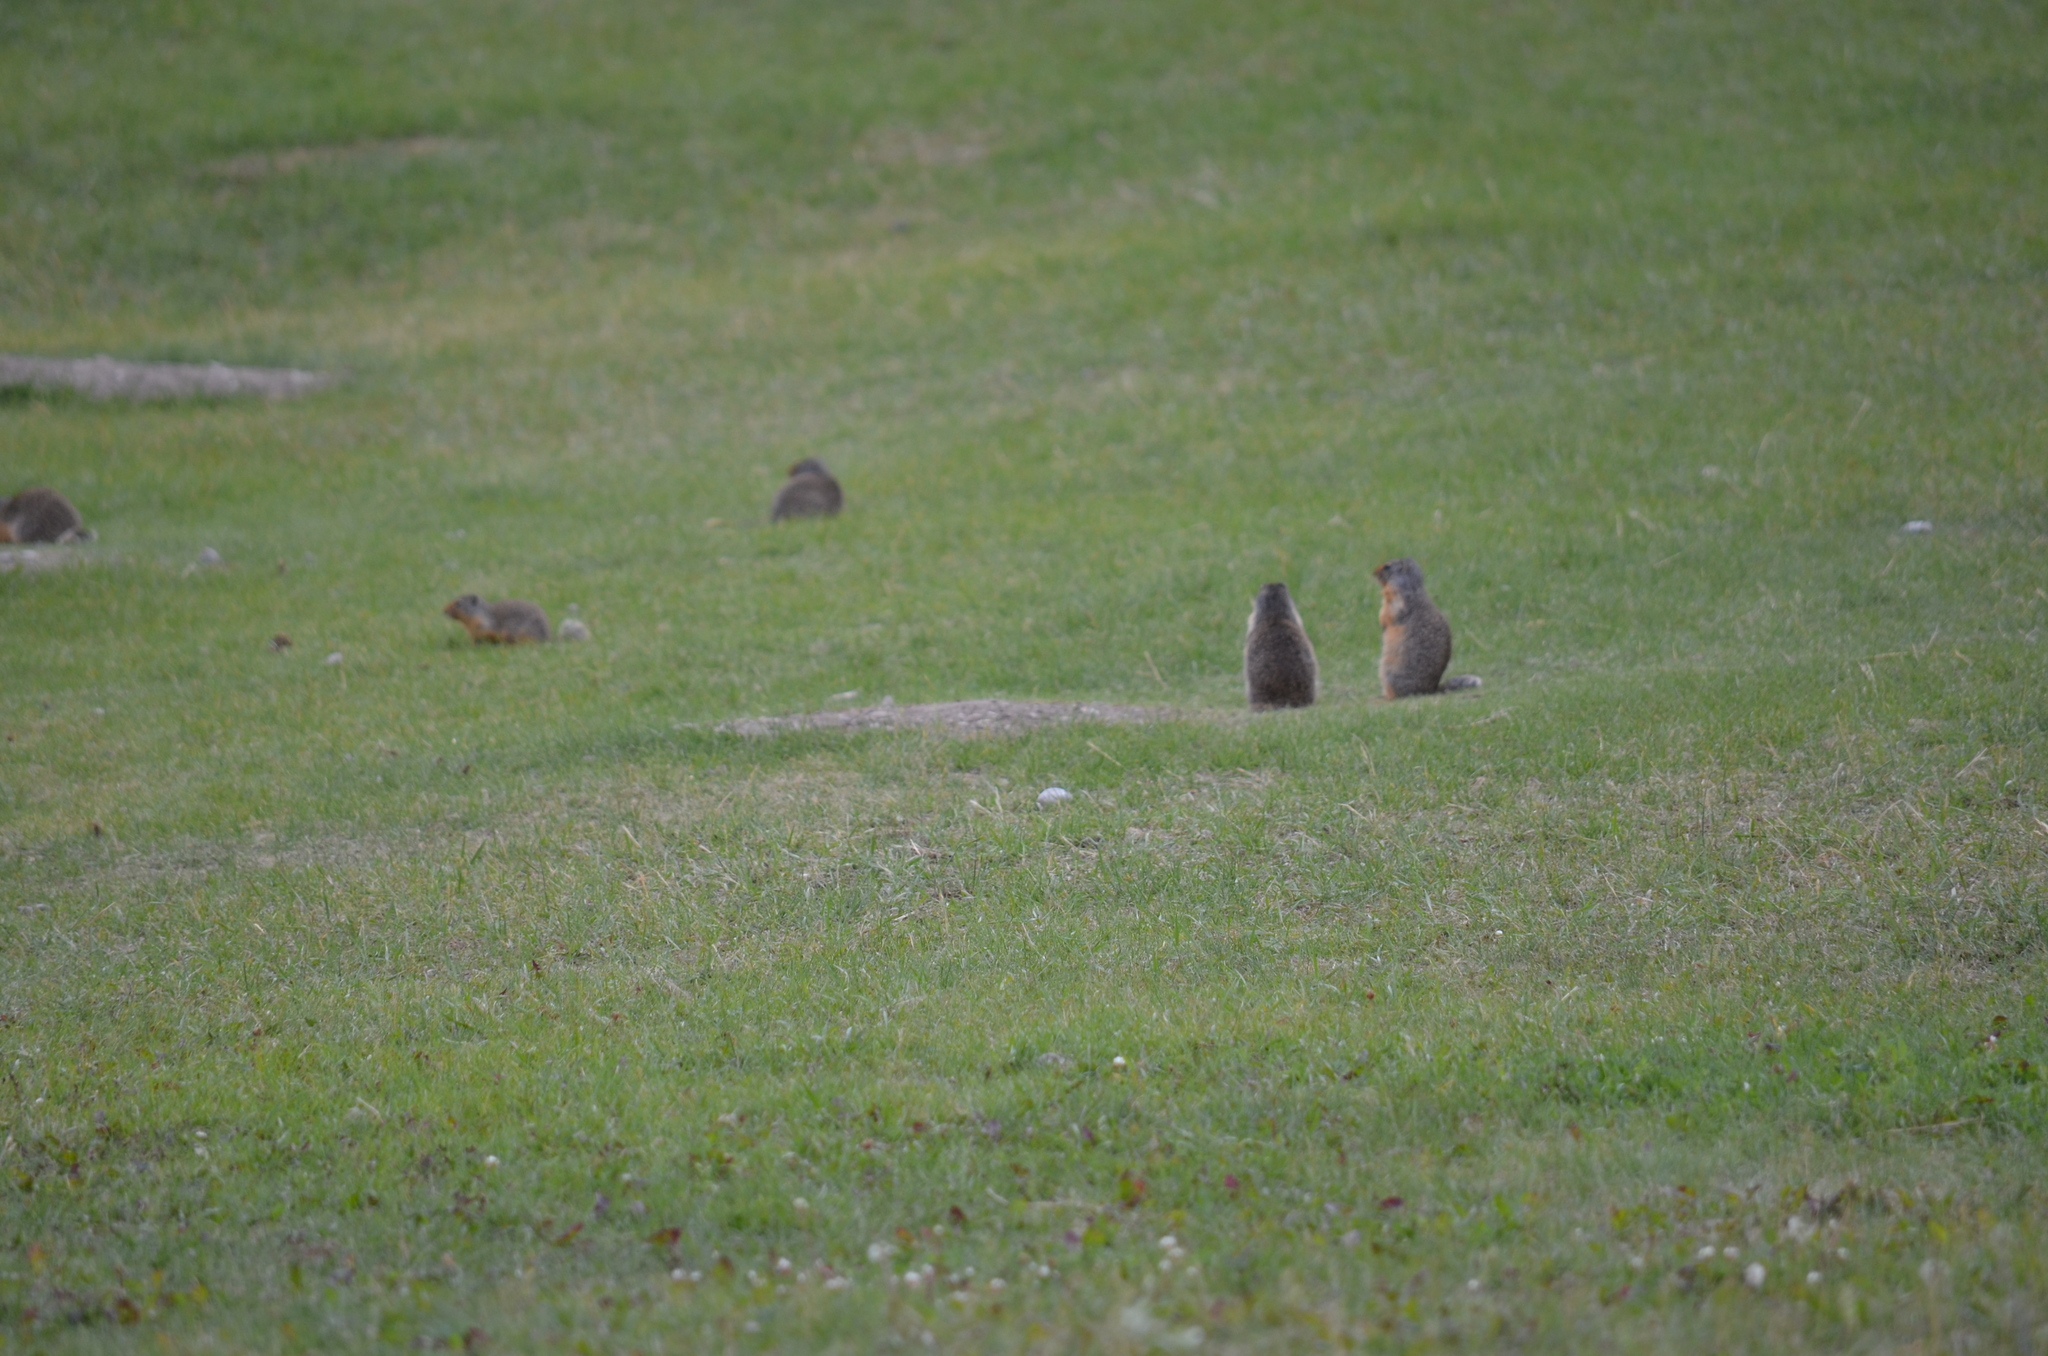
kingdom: Animalia
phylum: Chordata
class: Mammalia
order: Rodentia
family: Sciuridae
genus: Urocitellus
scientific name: Urocitellus columbianus
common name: Columbian ground squirrel
